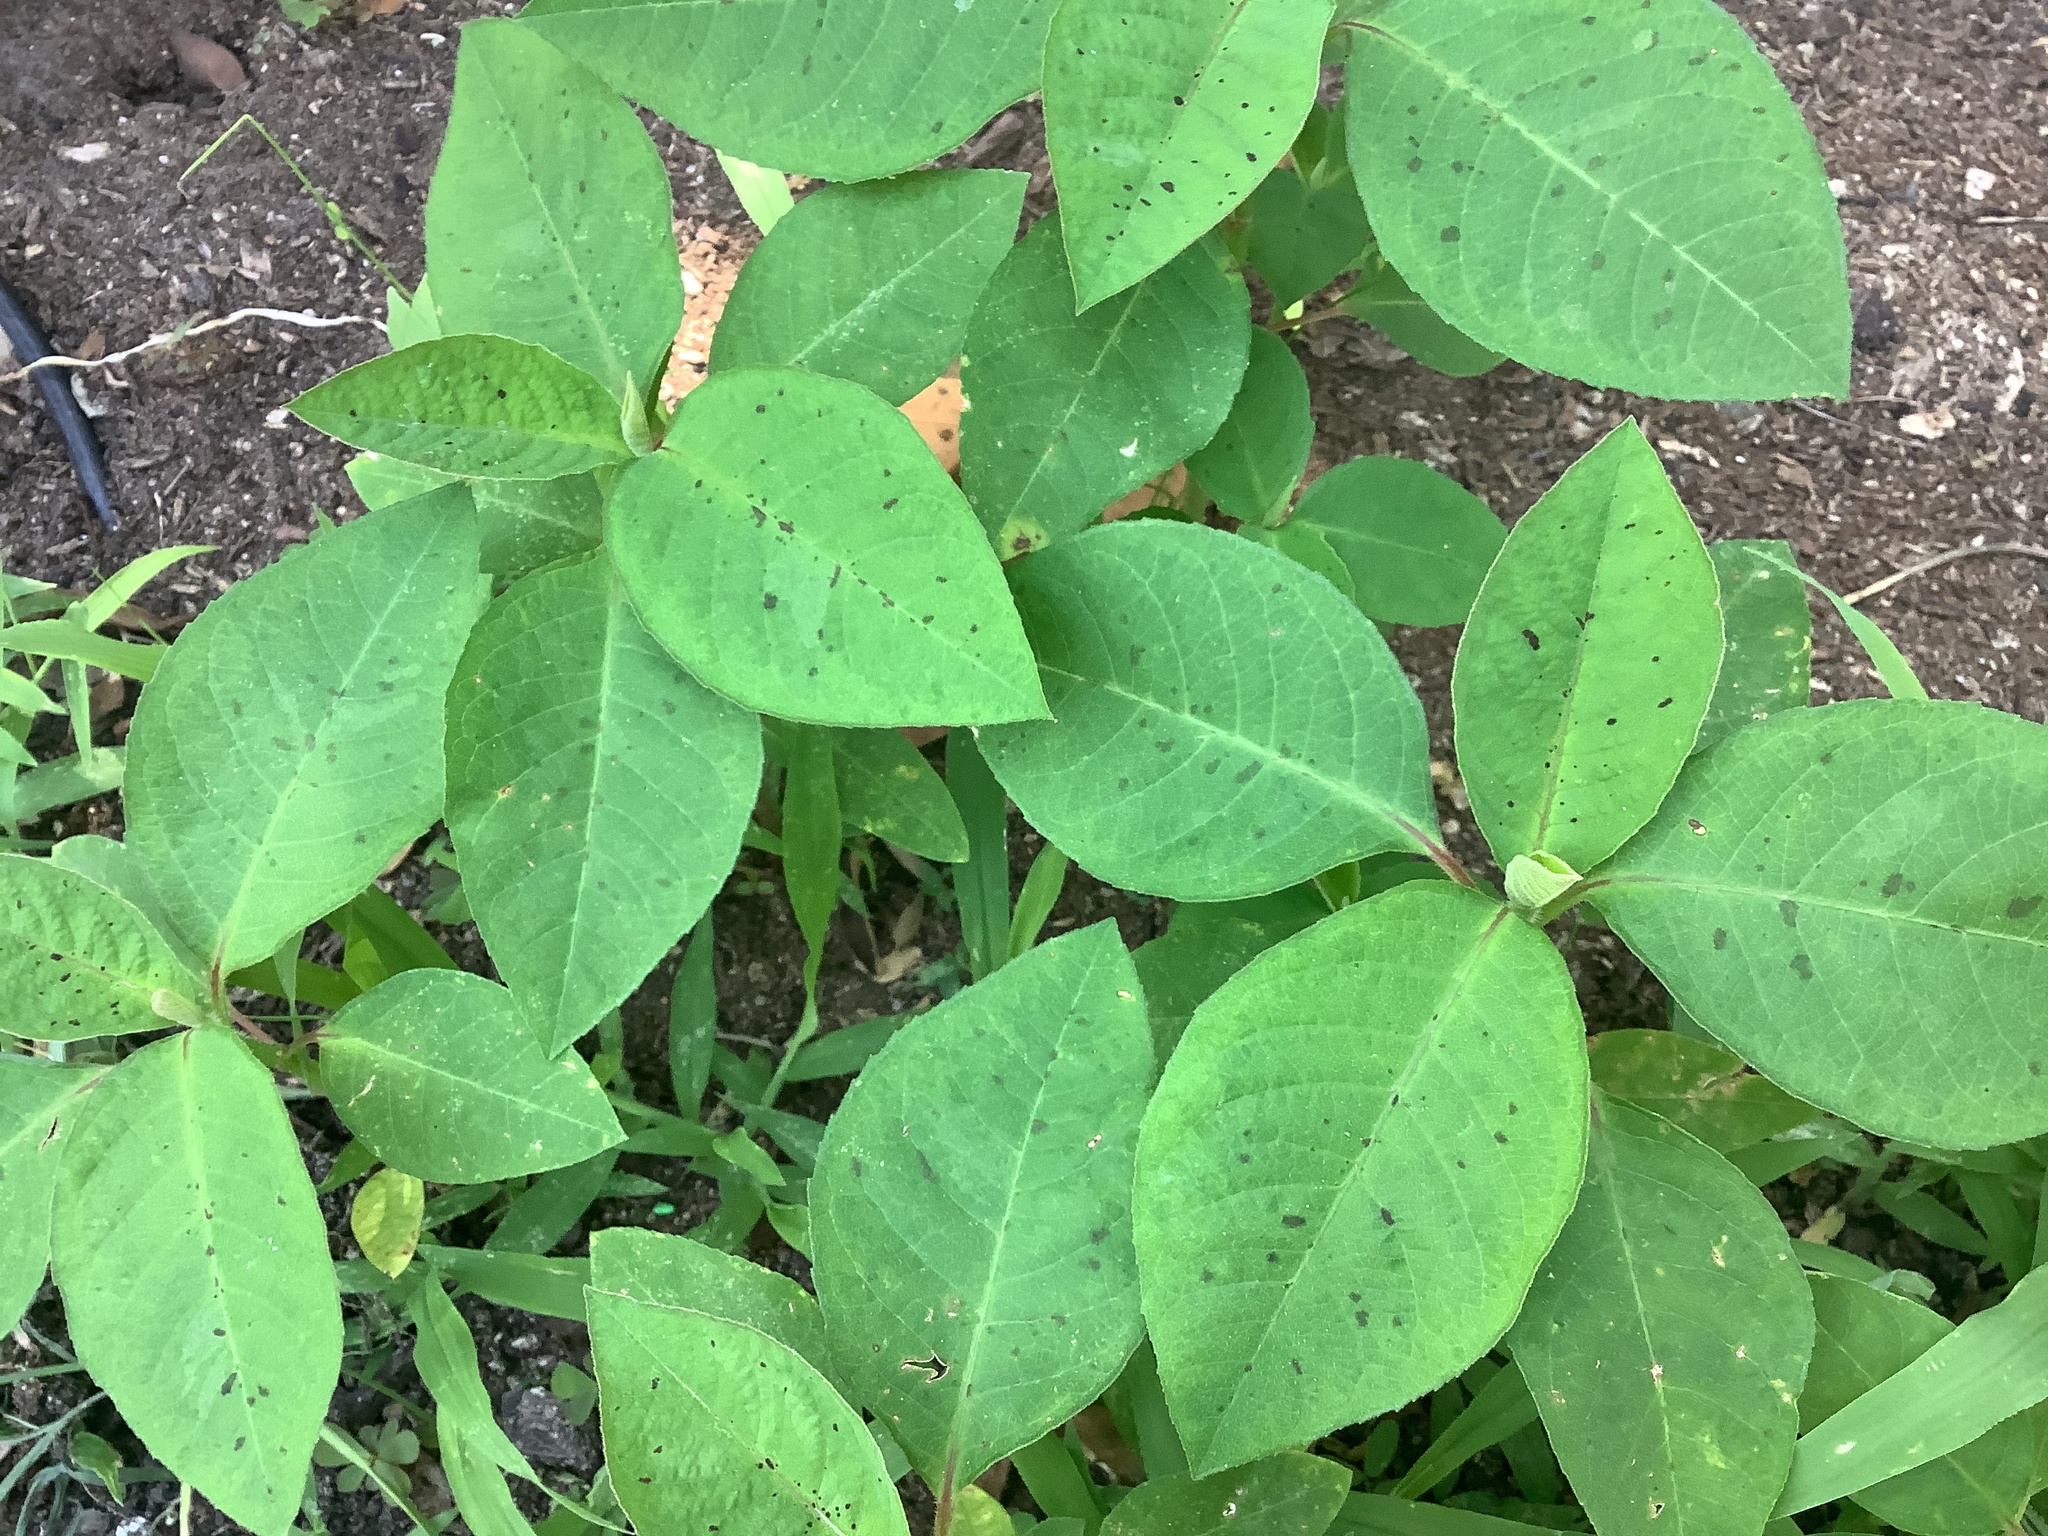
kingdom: Plantae
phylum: Tracheophyta
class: Magnoliopsida
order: Malpighiales
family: Euphorbiaceae
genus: Euphorbia
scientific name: Euphorbia heterophylla
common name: Mexican fireplant
